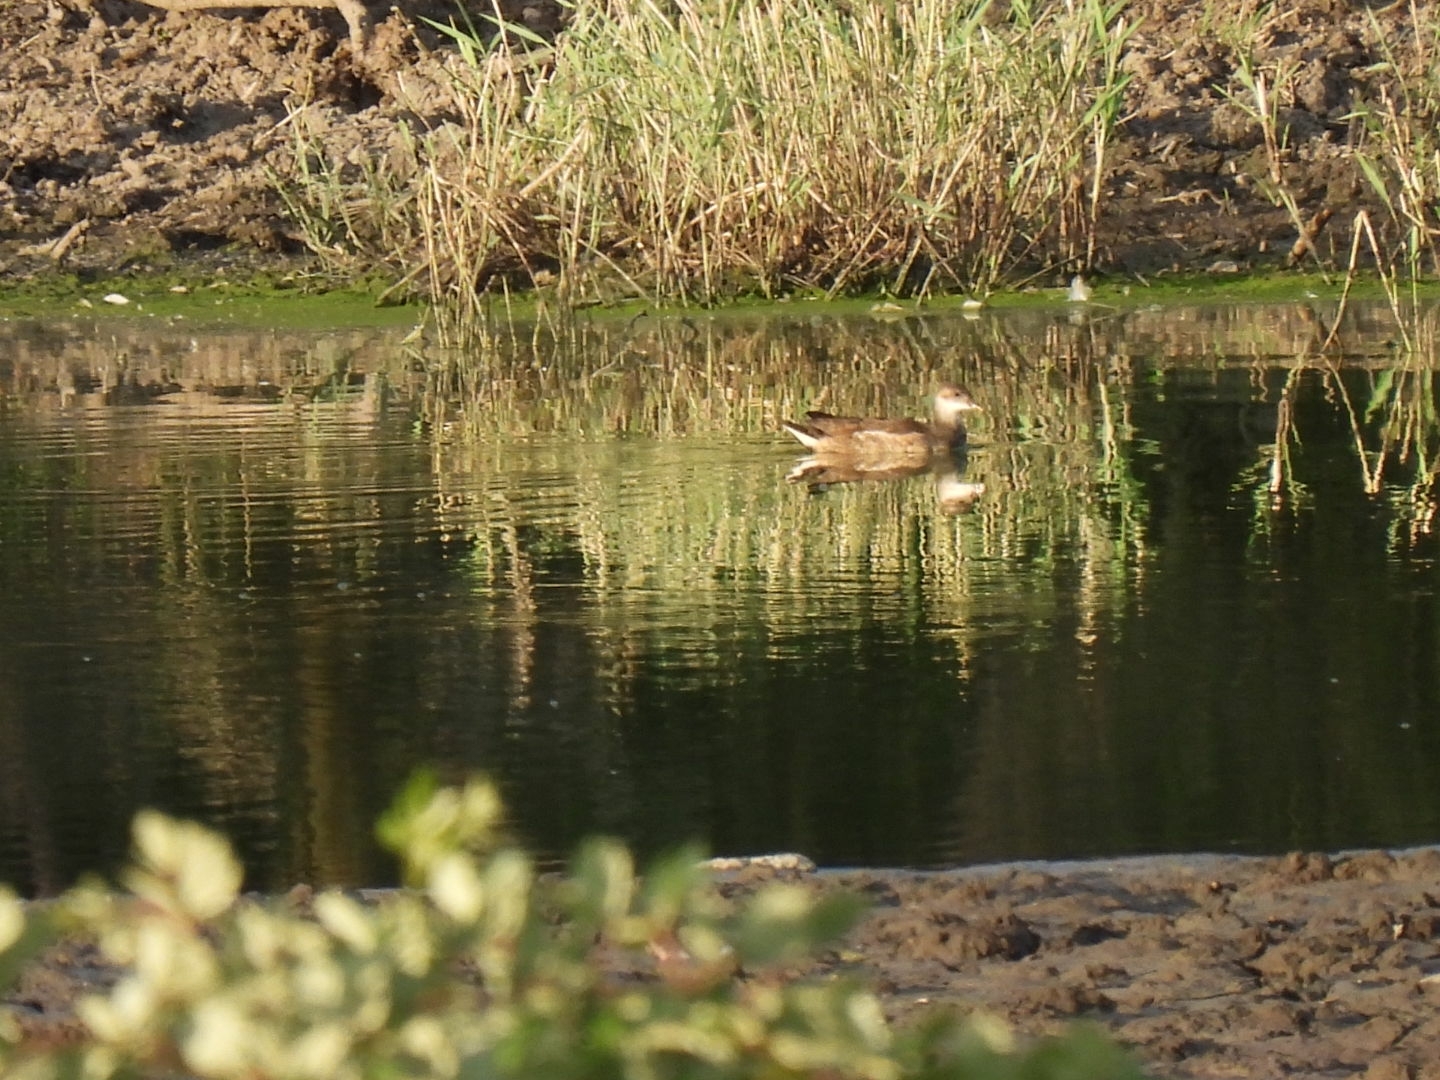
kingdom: Animalia
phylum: Chordata
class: Aves
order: Gruiformes
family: Rallidae
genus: Gallinula
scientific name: Gallinula chloropus
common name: Common moorhen
